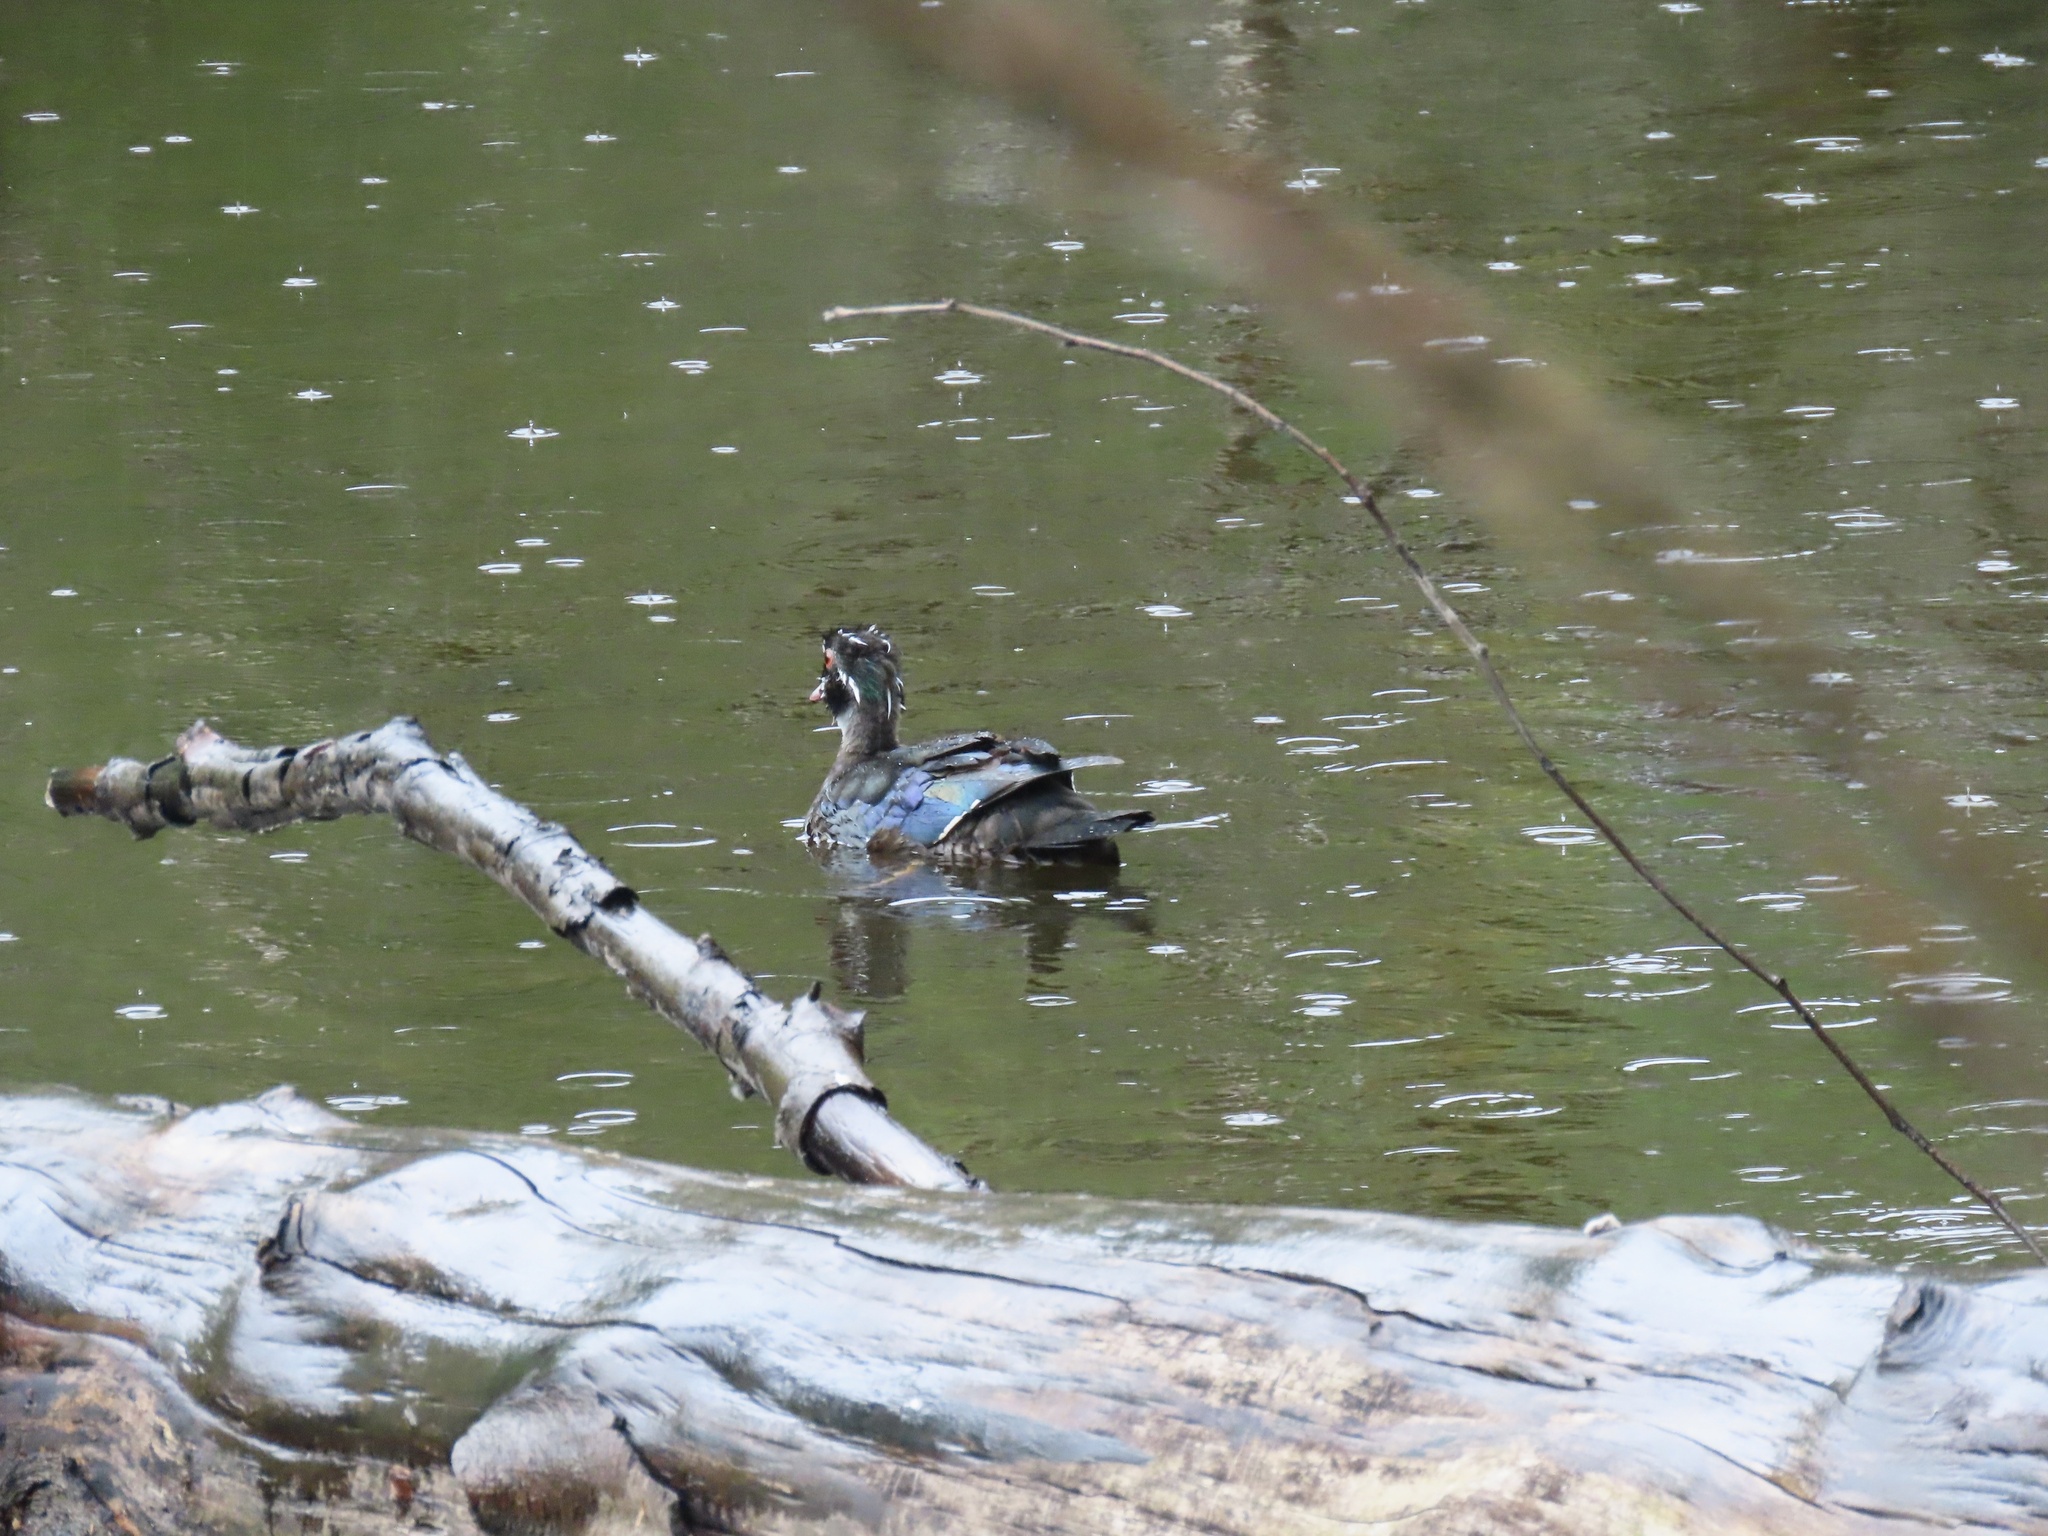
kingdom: Animalia
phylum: Chordata
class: Aves
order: Anseriformes
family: Anatidae
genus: Aix
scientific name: Aix sponsa
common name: Wood duck
